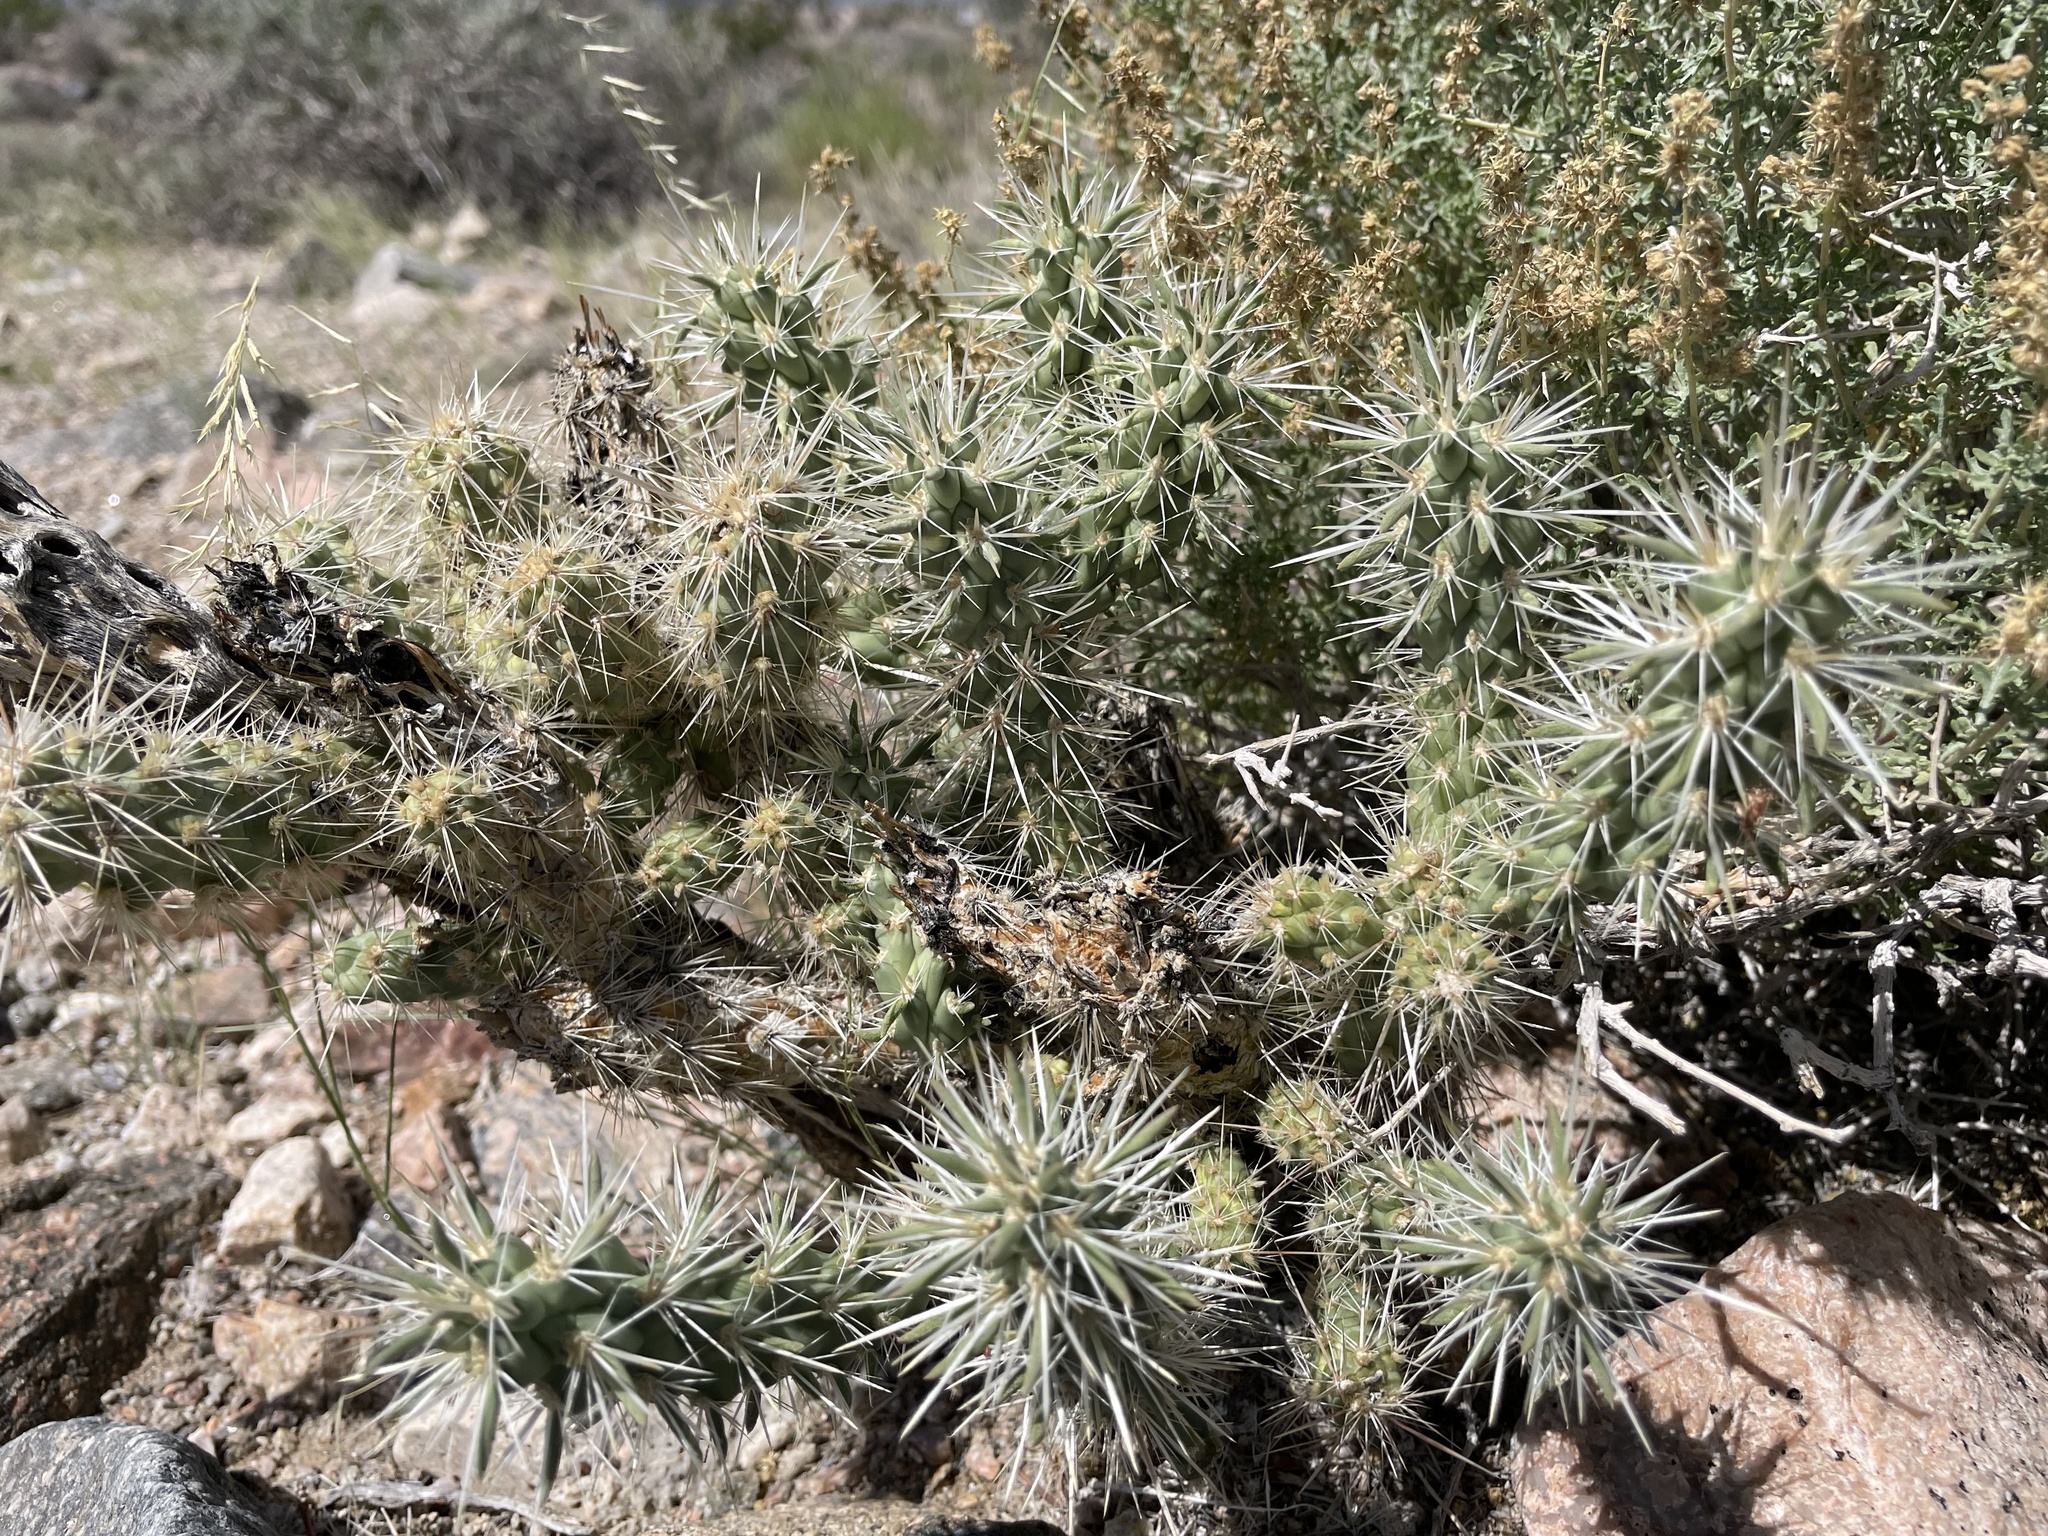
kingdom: Plantae
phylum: Tracheophyta
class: Magnoliopsida
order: Caryophyllales
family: Cactaceae
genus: Cylindropuntia
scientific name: Cylindropuntia echinocarpa
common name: Ground cholla
